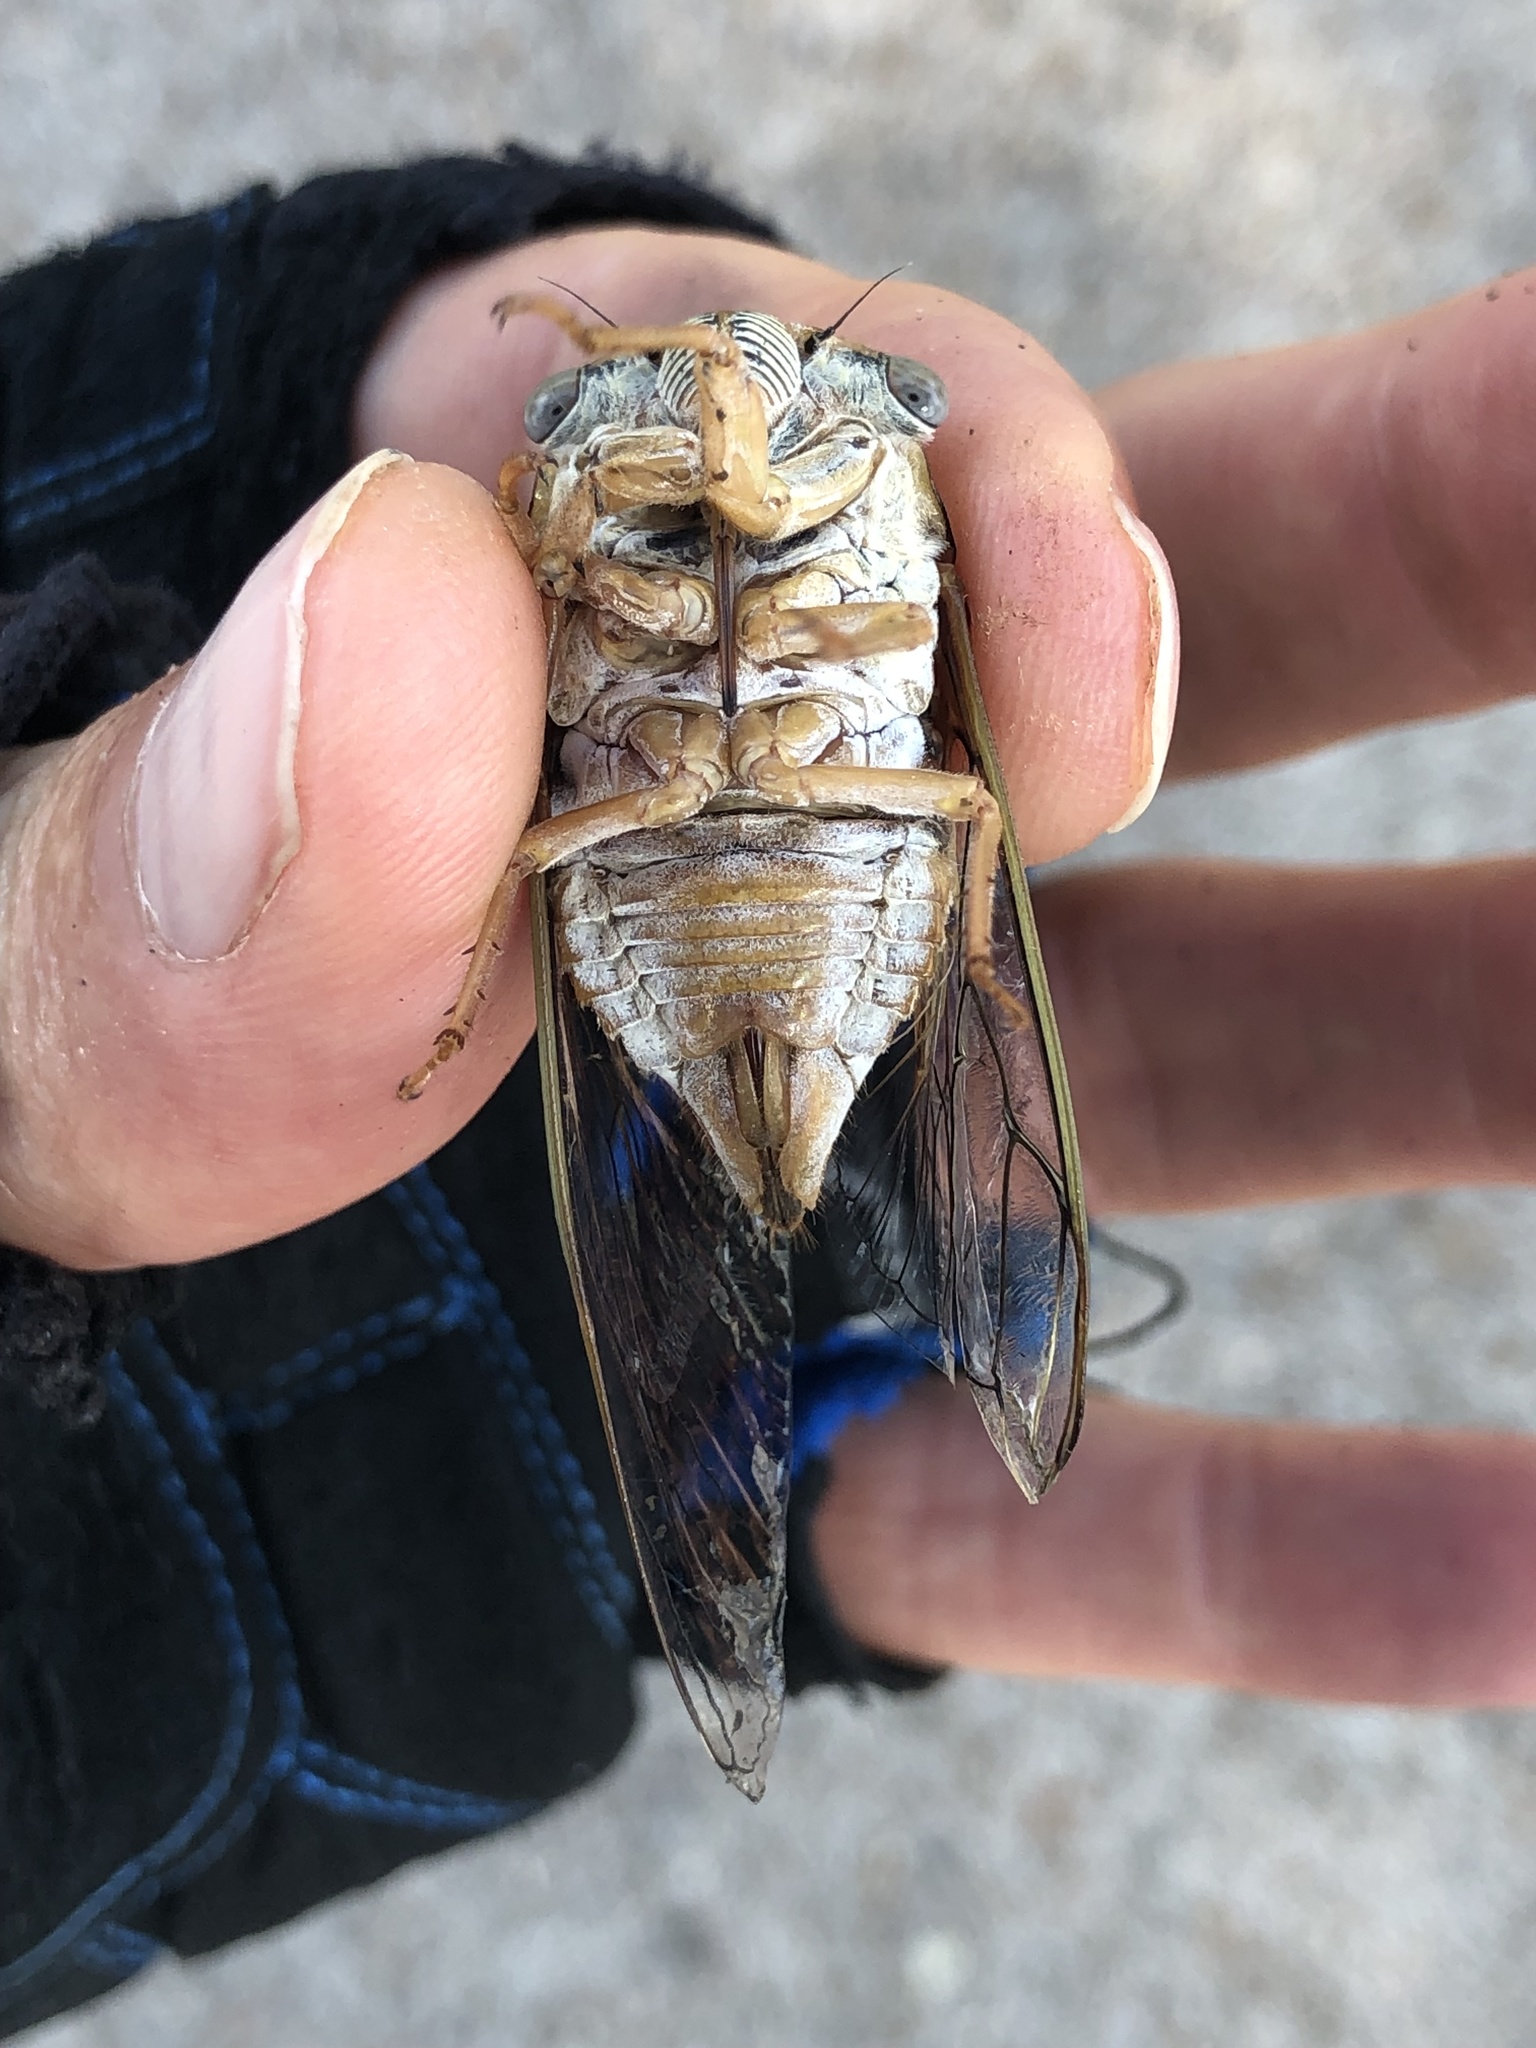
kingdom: Animalia
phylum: Arthropoda
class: Insecta
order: Hemiptera
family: Cicadidae
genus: Megatibicen
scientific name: Megatibicen resh
